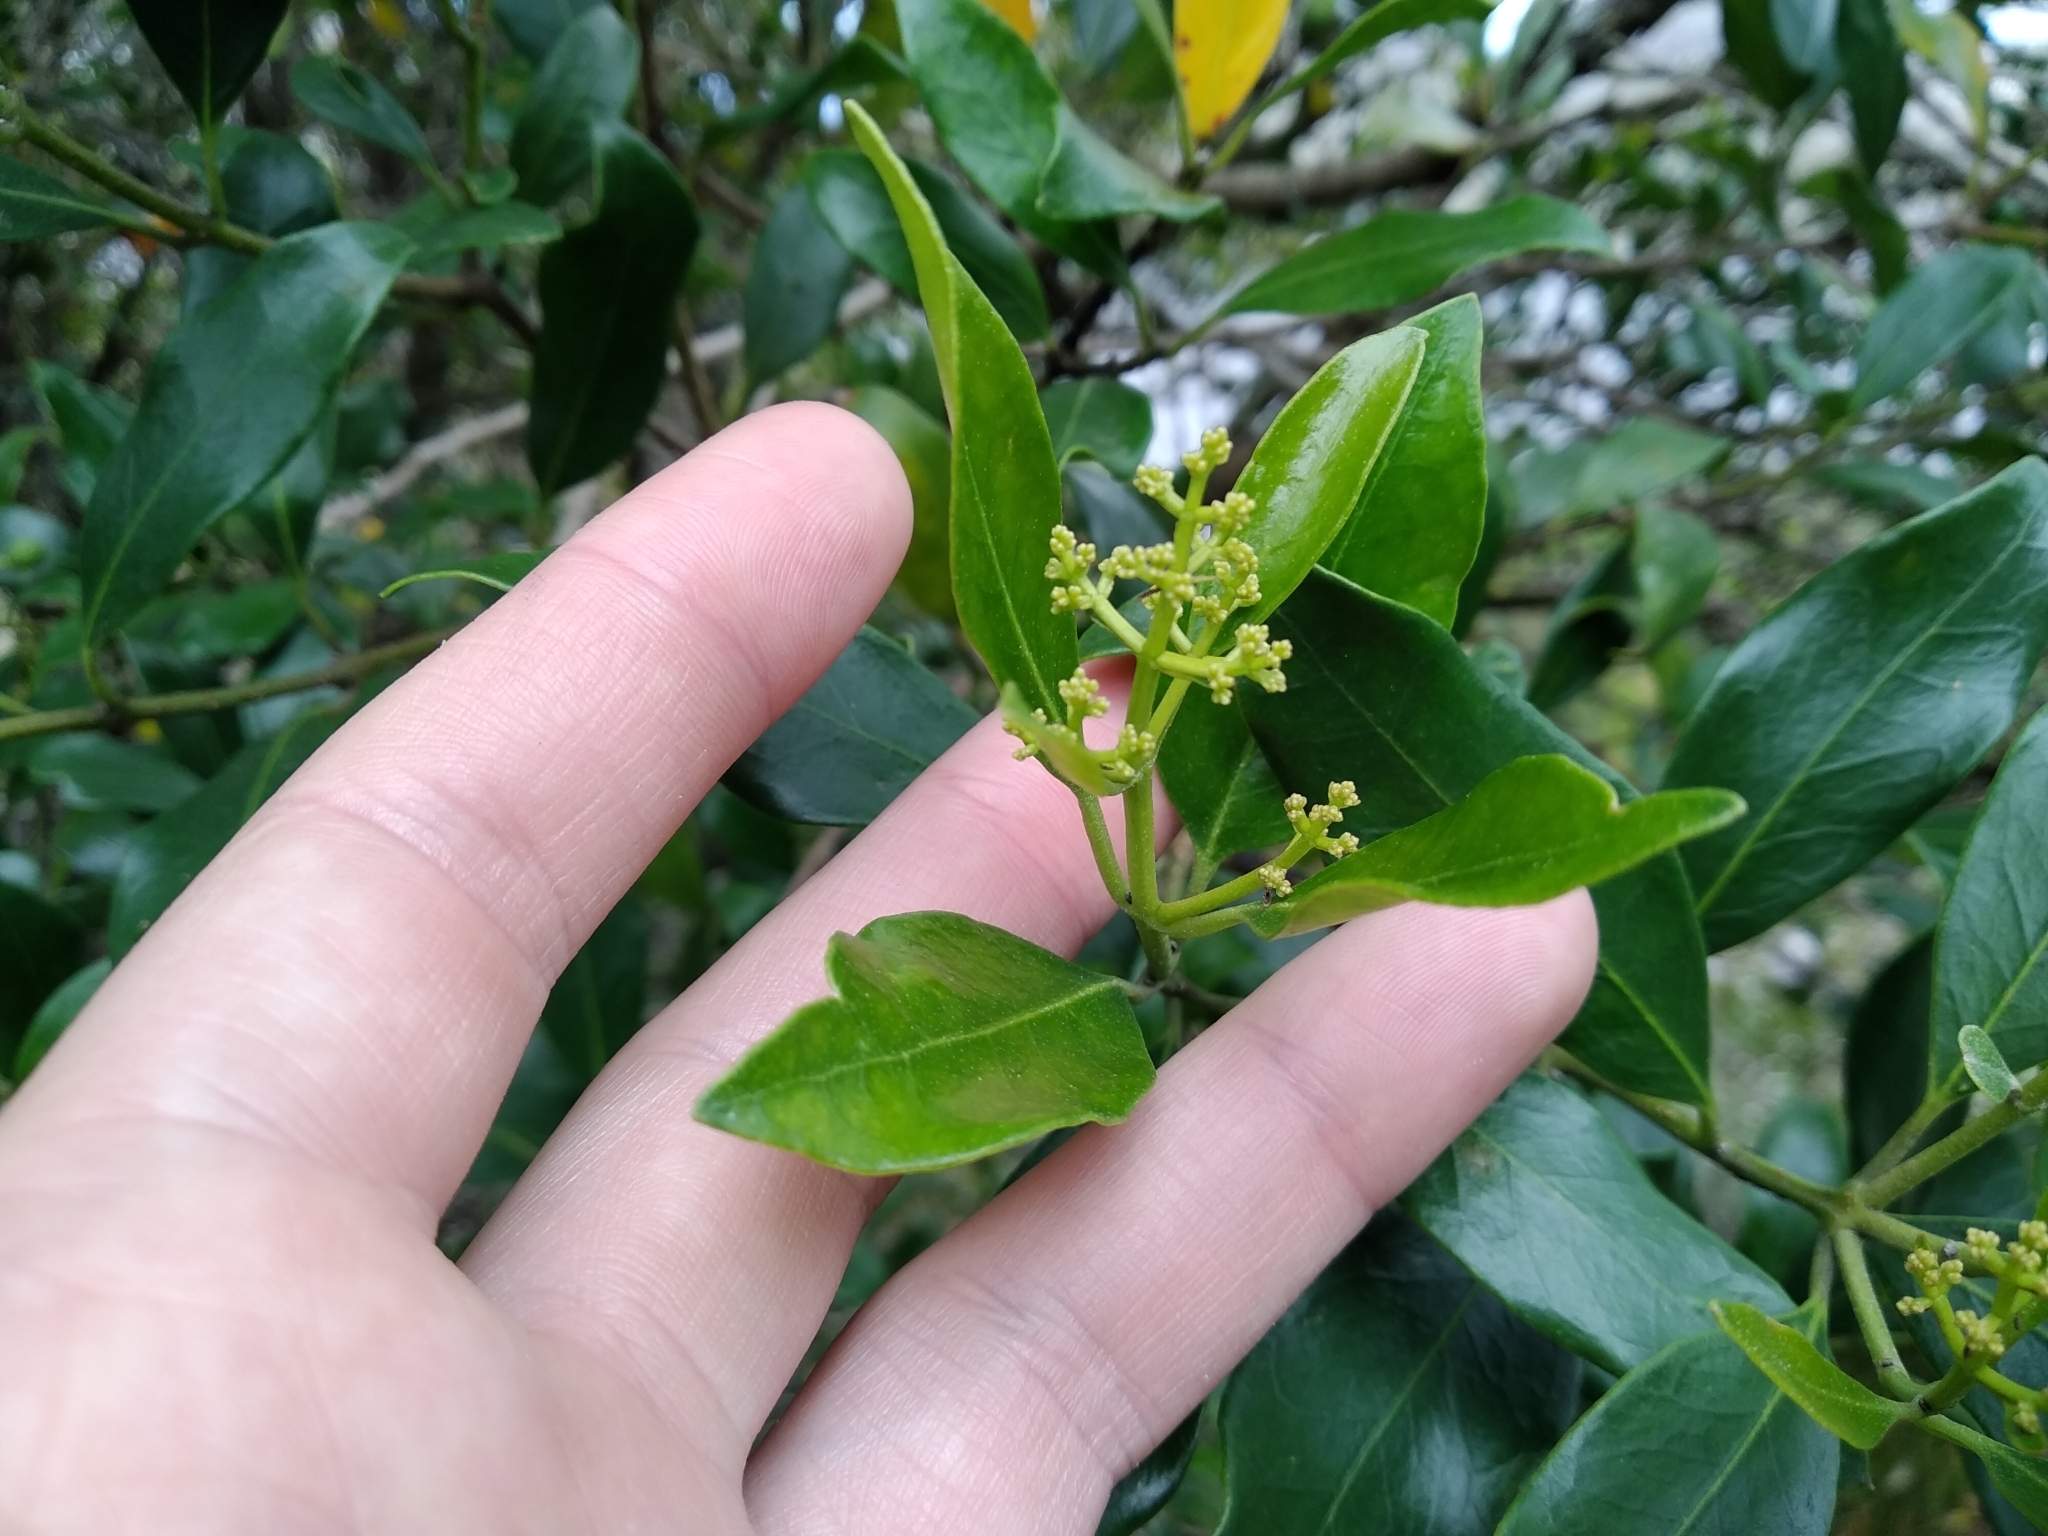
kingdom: Plantae
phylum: Tracheophyta
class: Magnoliopsida
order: Lamiales
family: Oleaceae
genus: Olea
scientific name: Olea capensis
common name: Black ironwood
